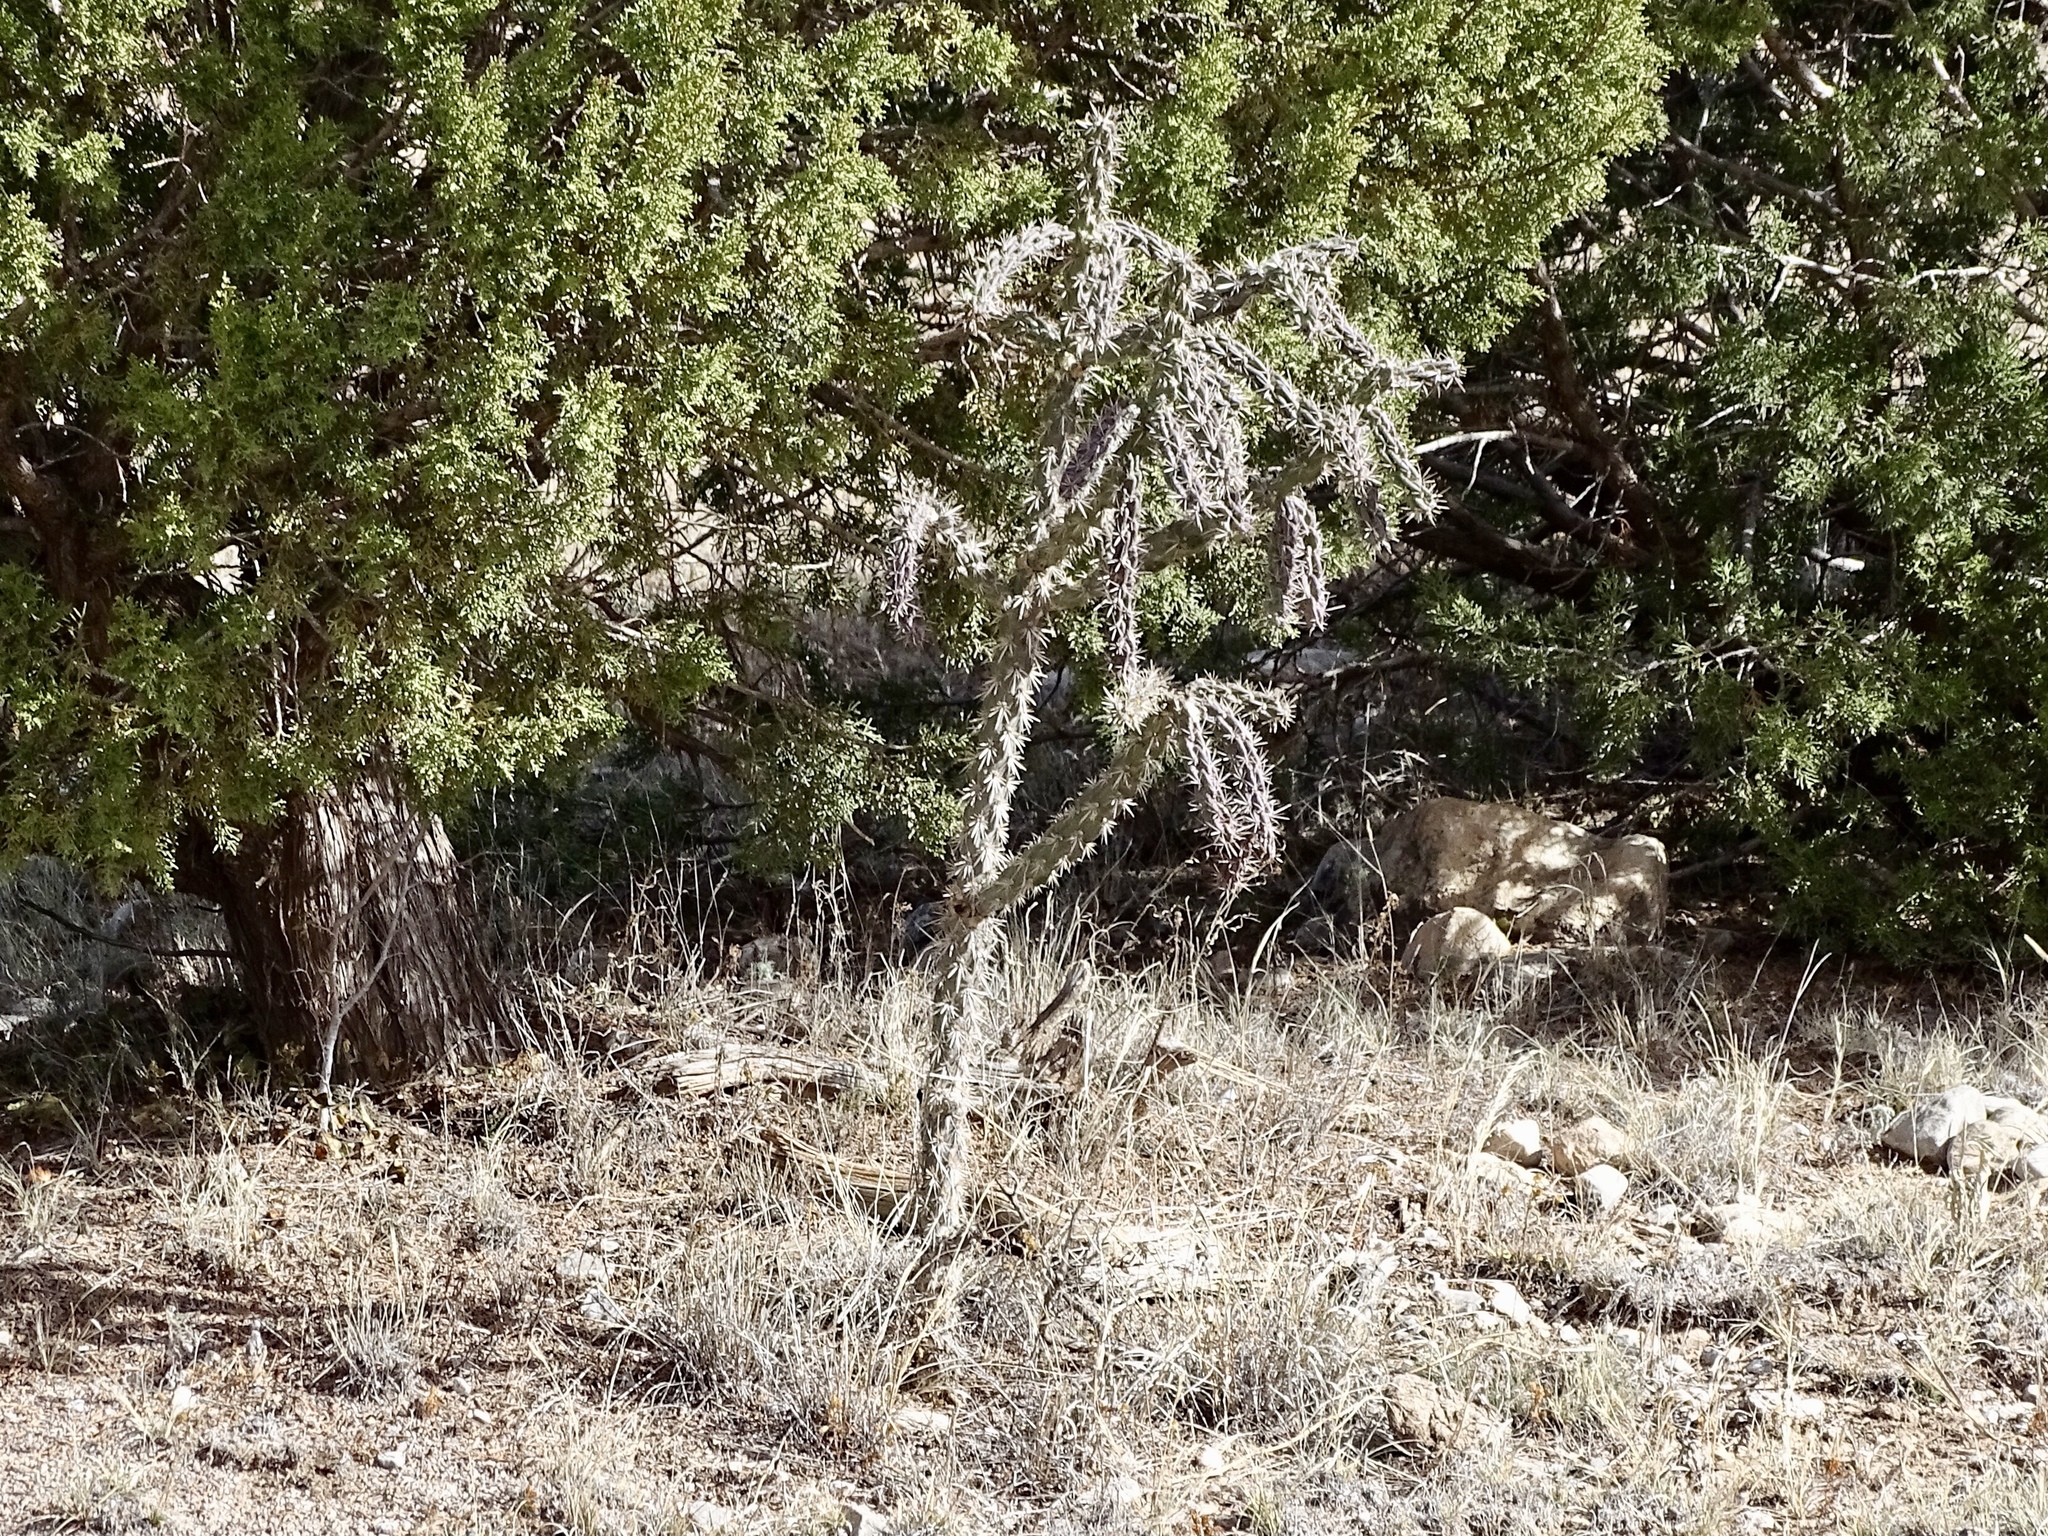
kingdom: Plantae
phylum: Tracheophyta
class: Magnoliopsida
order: Caryophyllales
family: Cactaceae
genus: Cylindropuntia
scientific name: Cylindropuntia imbricata
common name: Candelabrum cactus
